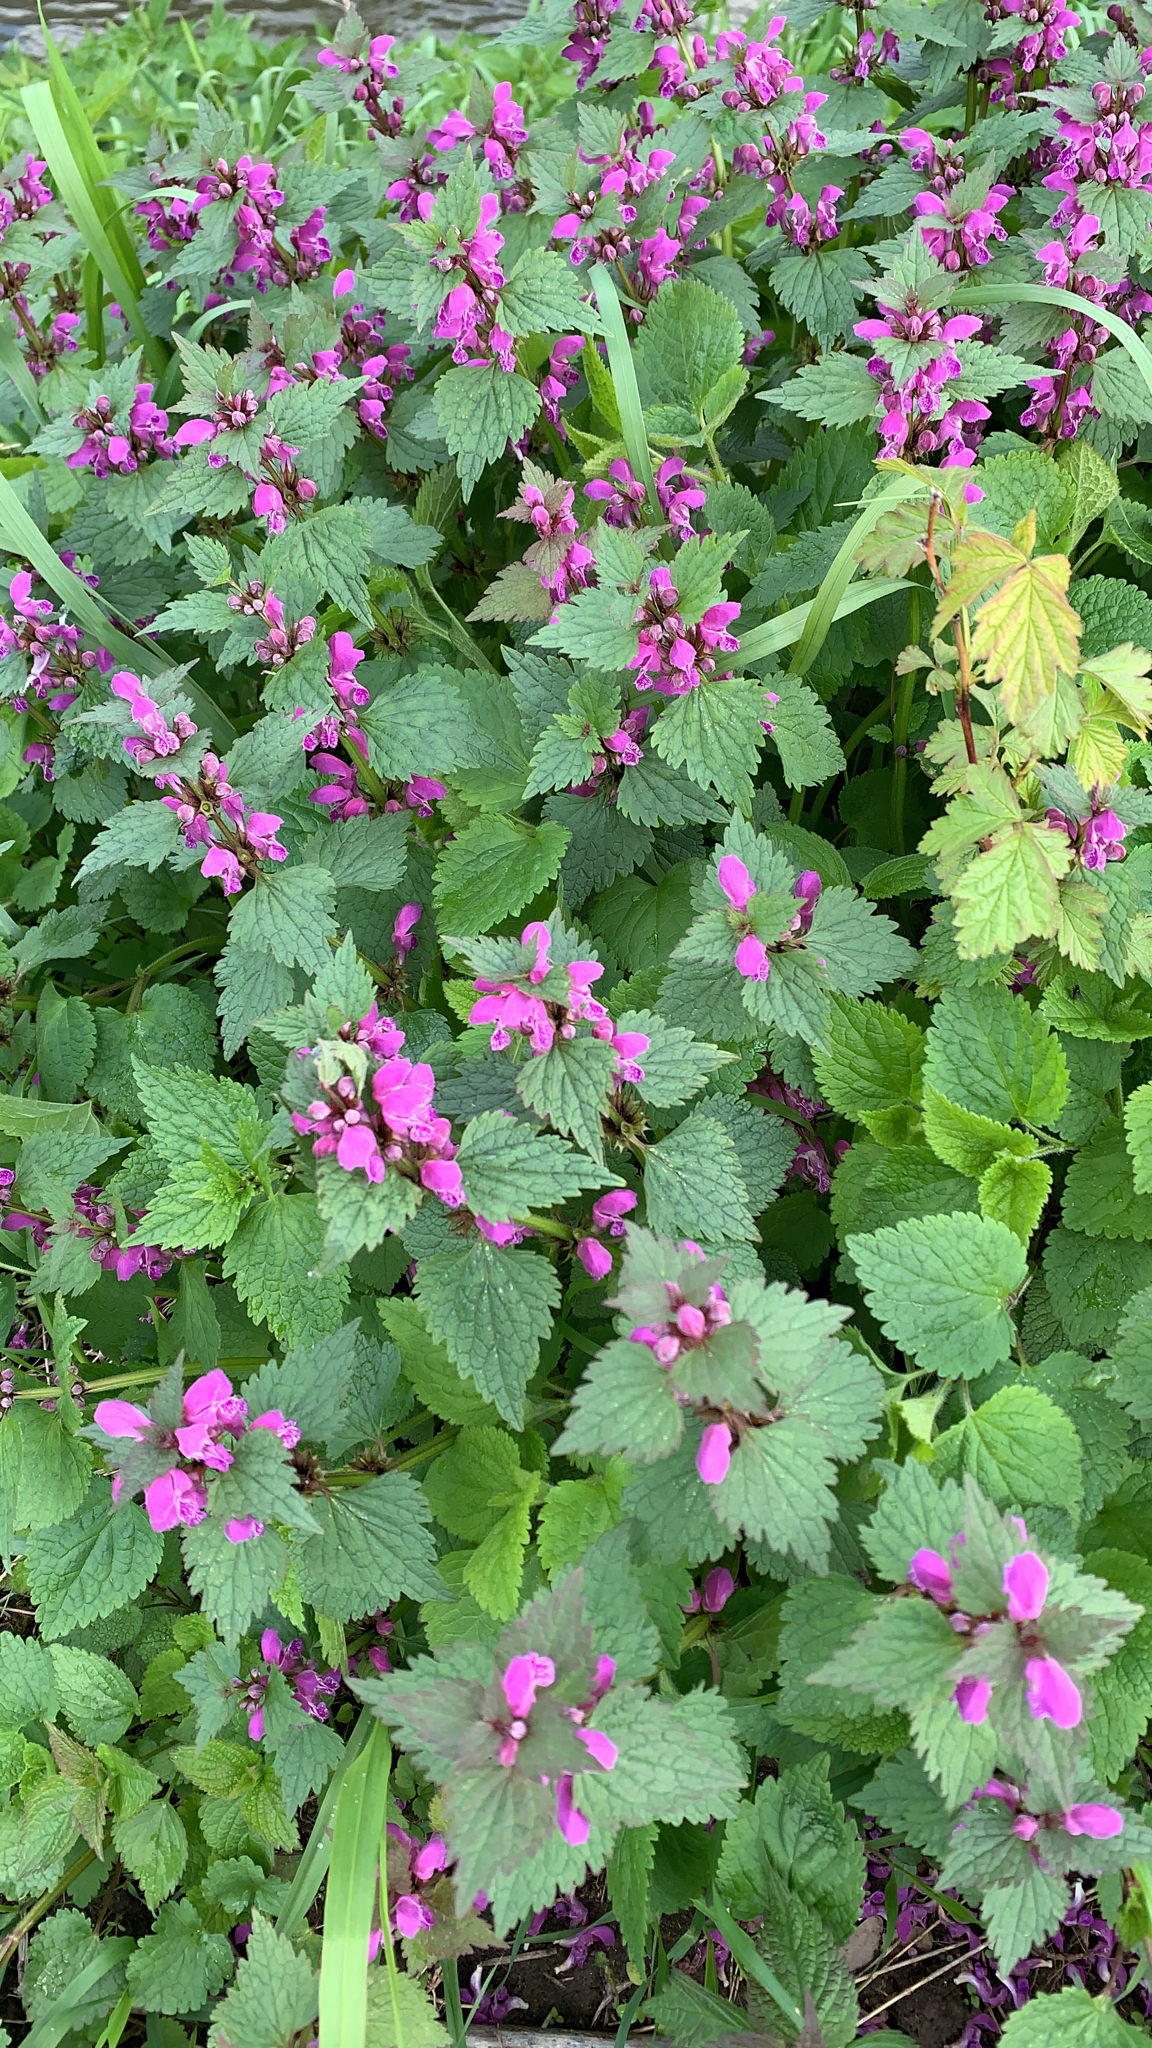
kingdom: Plantae
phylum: Tracheophyta
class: Magnoliopsida
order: Lamiales
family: Lamiaceae
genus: Lamium
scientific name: Lamium maculatum
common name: Spotted dead-nettle
